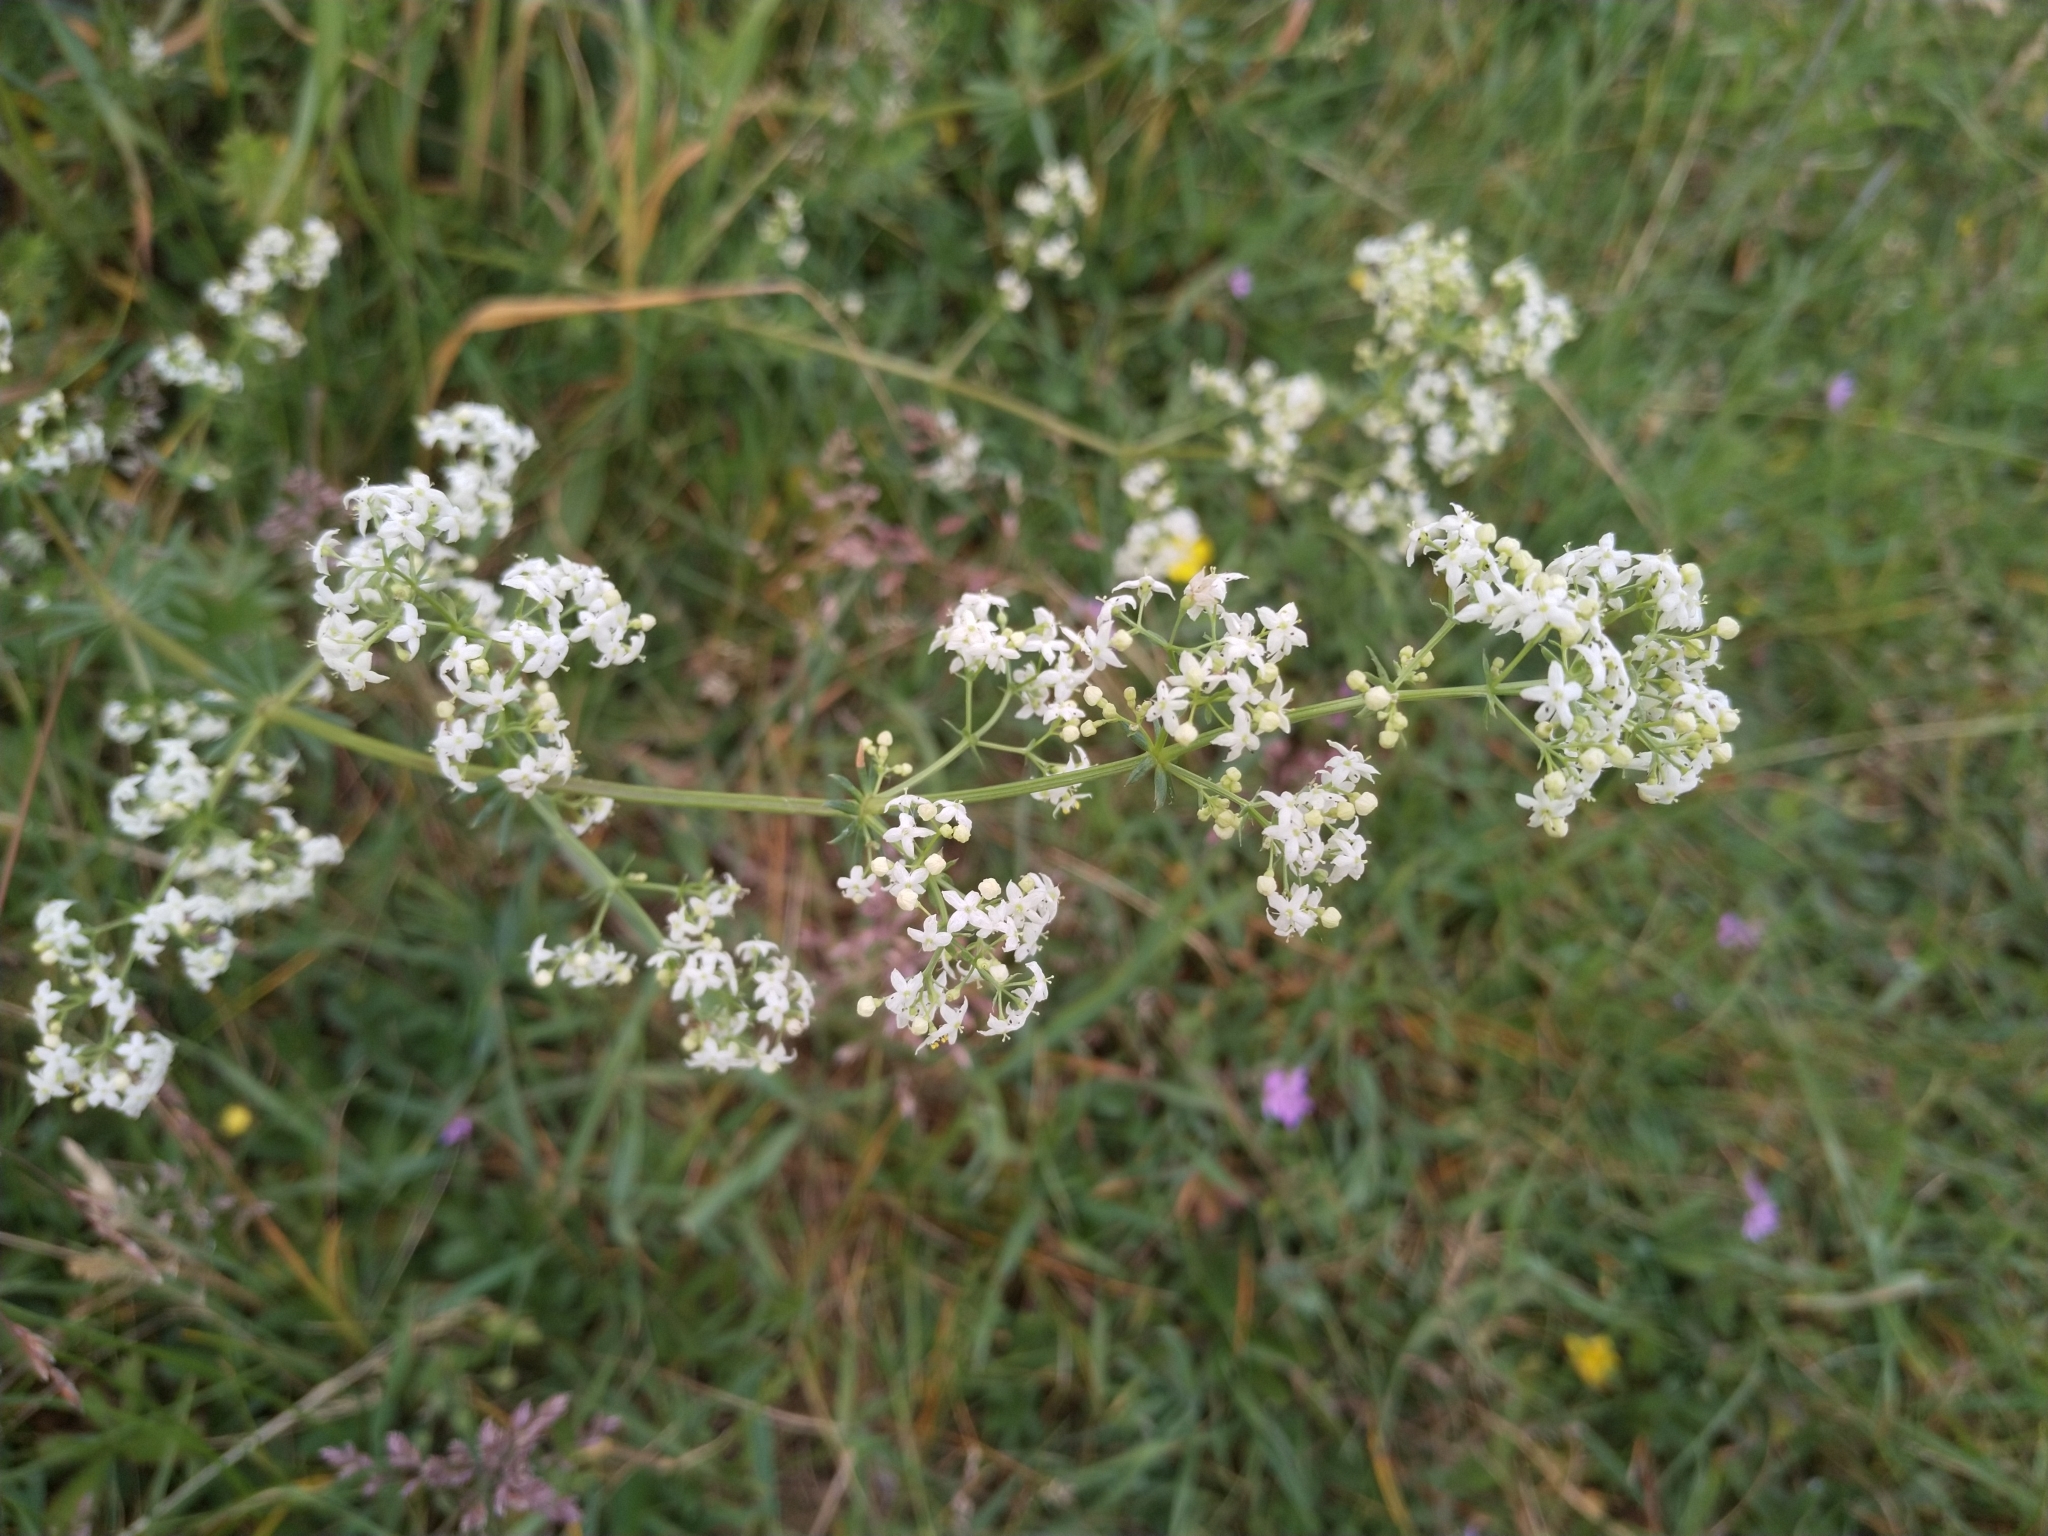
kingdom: Plantae
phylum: Tracheophyta
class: Magnoliopsida
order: Gentianales
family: Rubiaceae
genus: Galium
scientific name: Galium album
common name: White bedstraw
